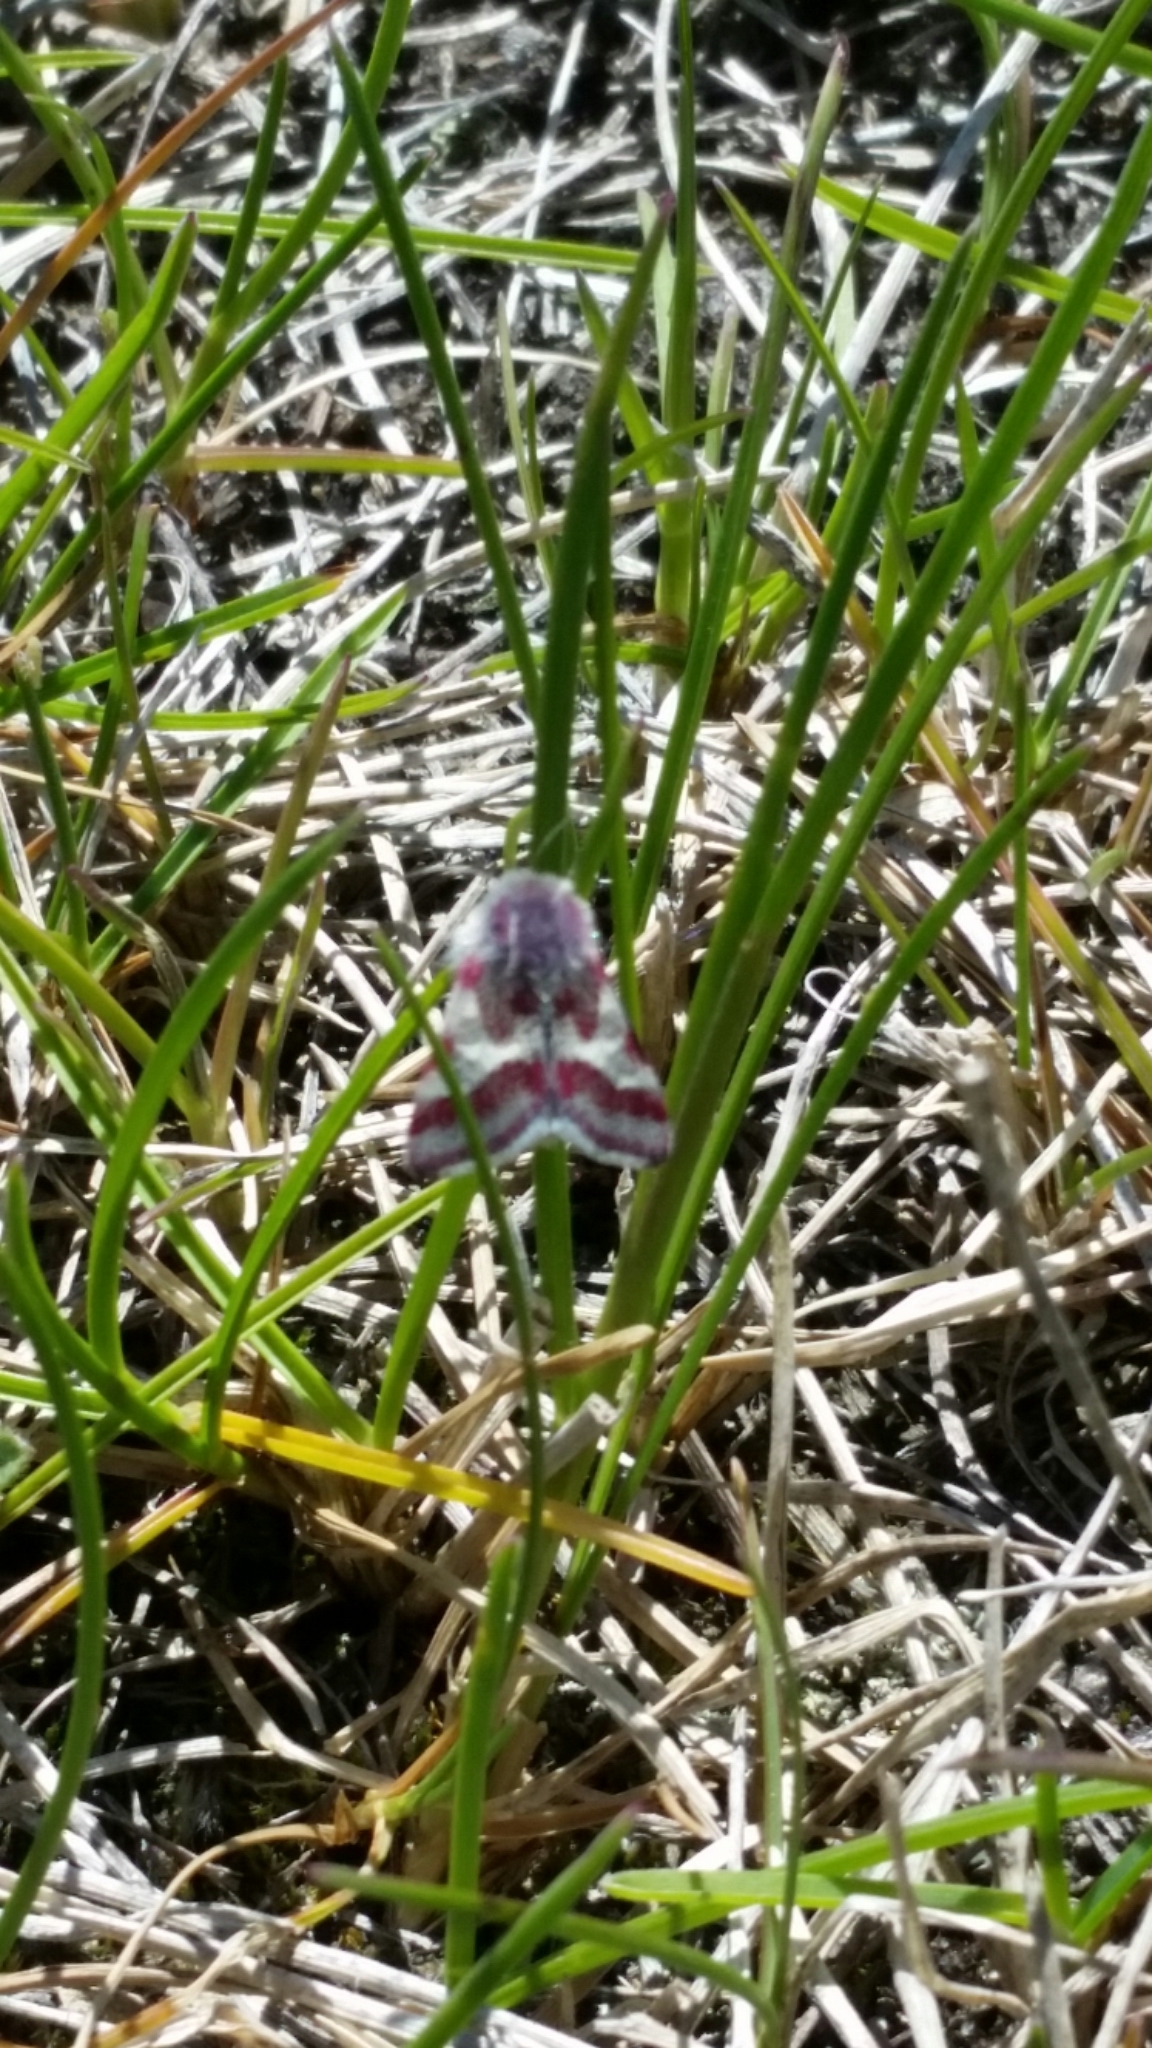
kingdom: Animalia
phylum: Arthropoda
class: Insecta
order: Lepidoptera
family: Noctuidae
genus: Eutricopis
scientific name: Eutricopis nexilis
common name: White-spotted midget moth
